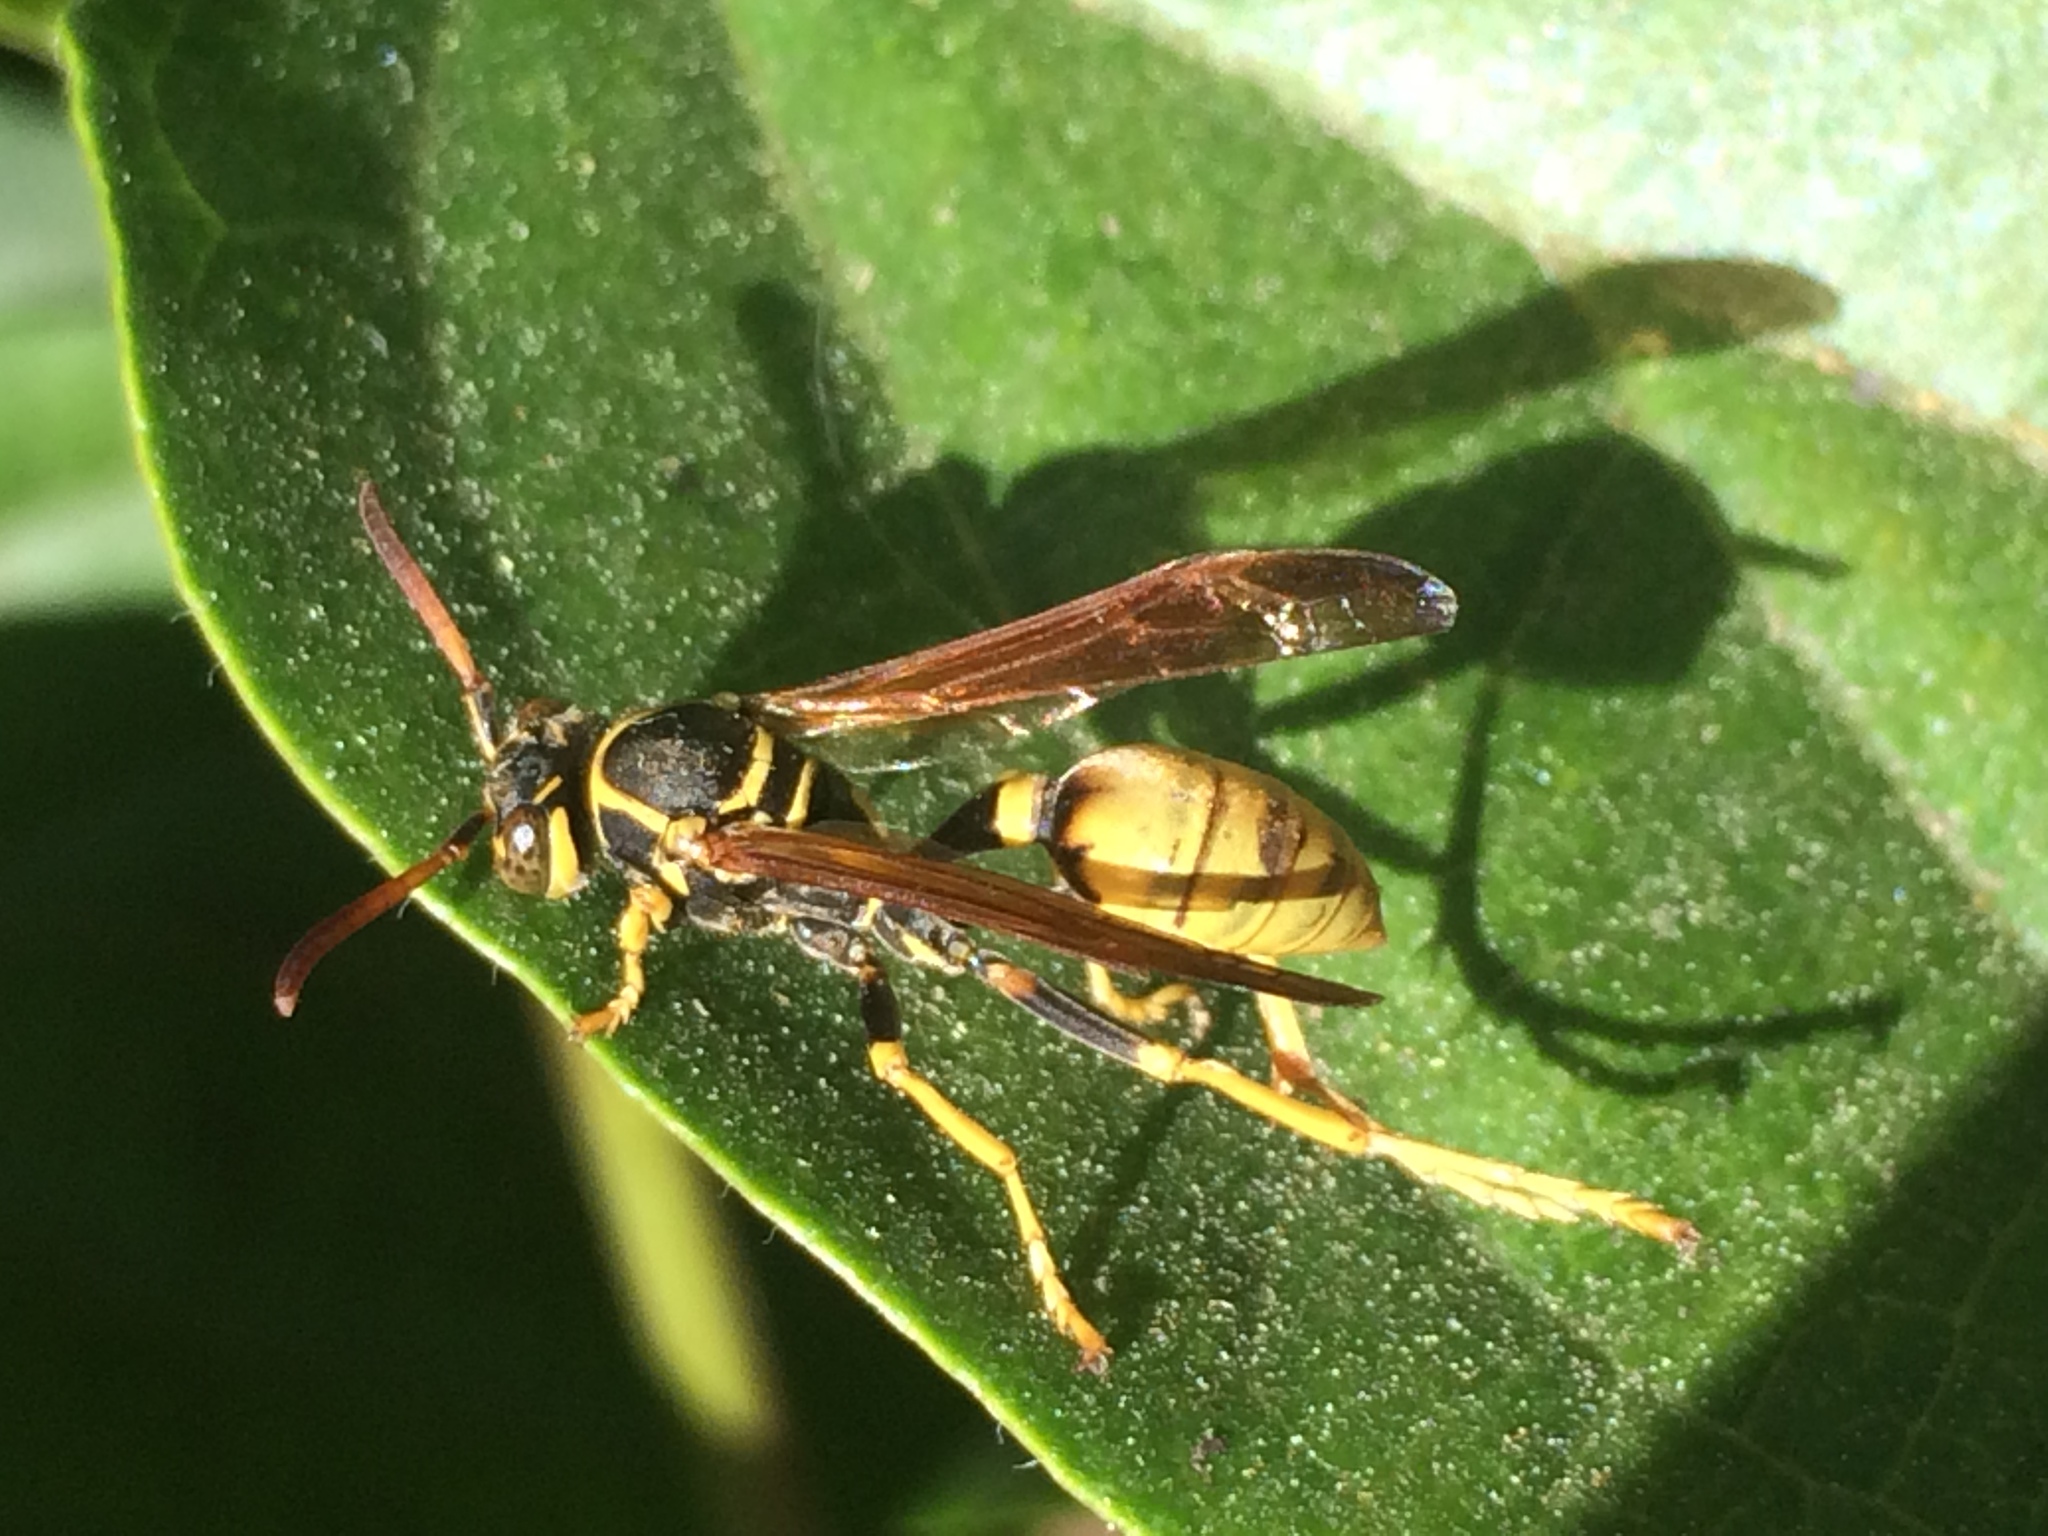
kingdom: Animalia
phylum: Arthropoda
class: Insecta
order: Hymenoptera
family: Vespidae
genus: Mischocyttarus
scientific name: Mischocyttarus flavitarsis
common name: Wasp
